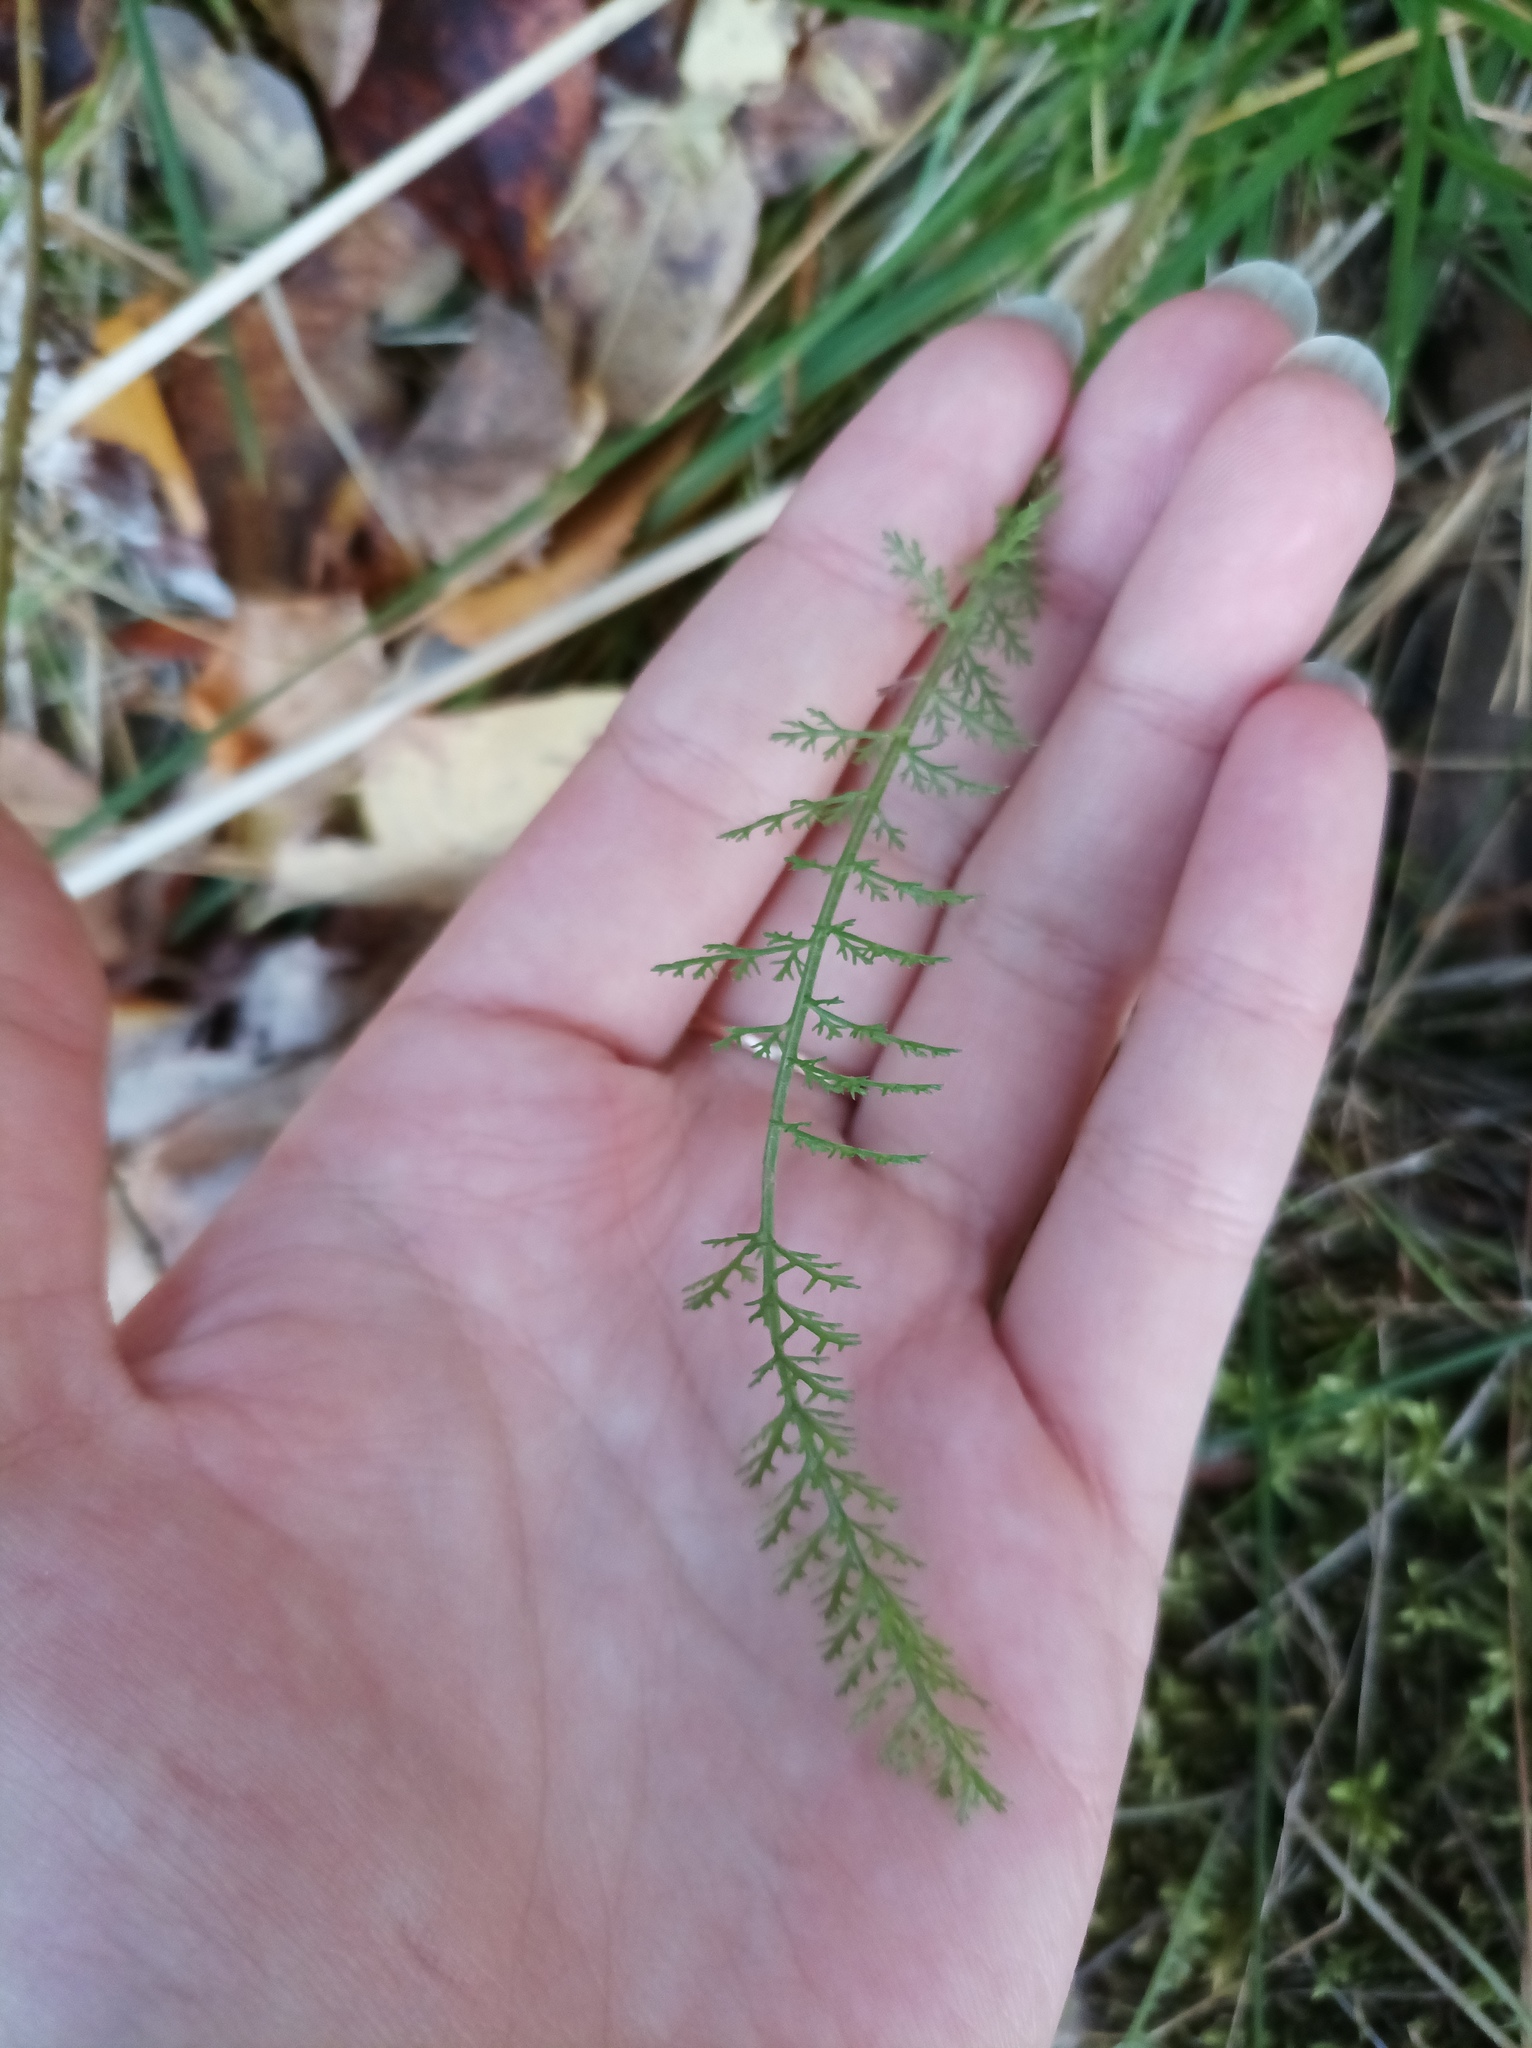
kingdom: Plantae
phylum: Tracheophyta
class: Magnoliopsida
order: Asterales
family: Asteraceae
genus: Achillea
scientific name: Achillea millefolium
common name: Yarrow
